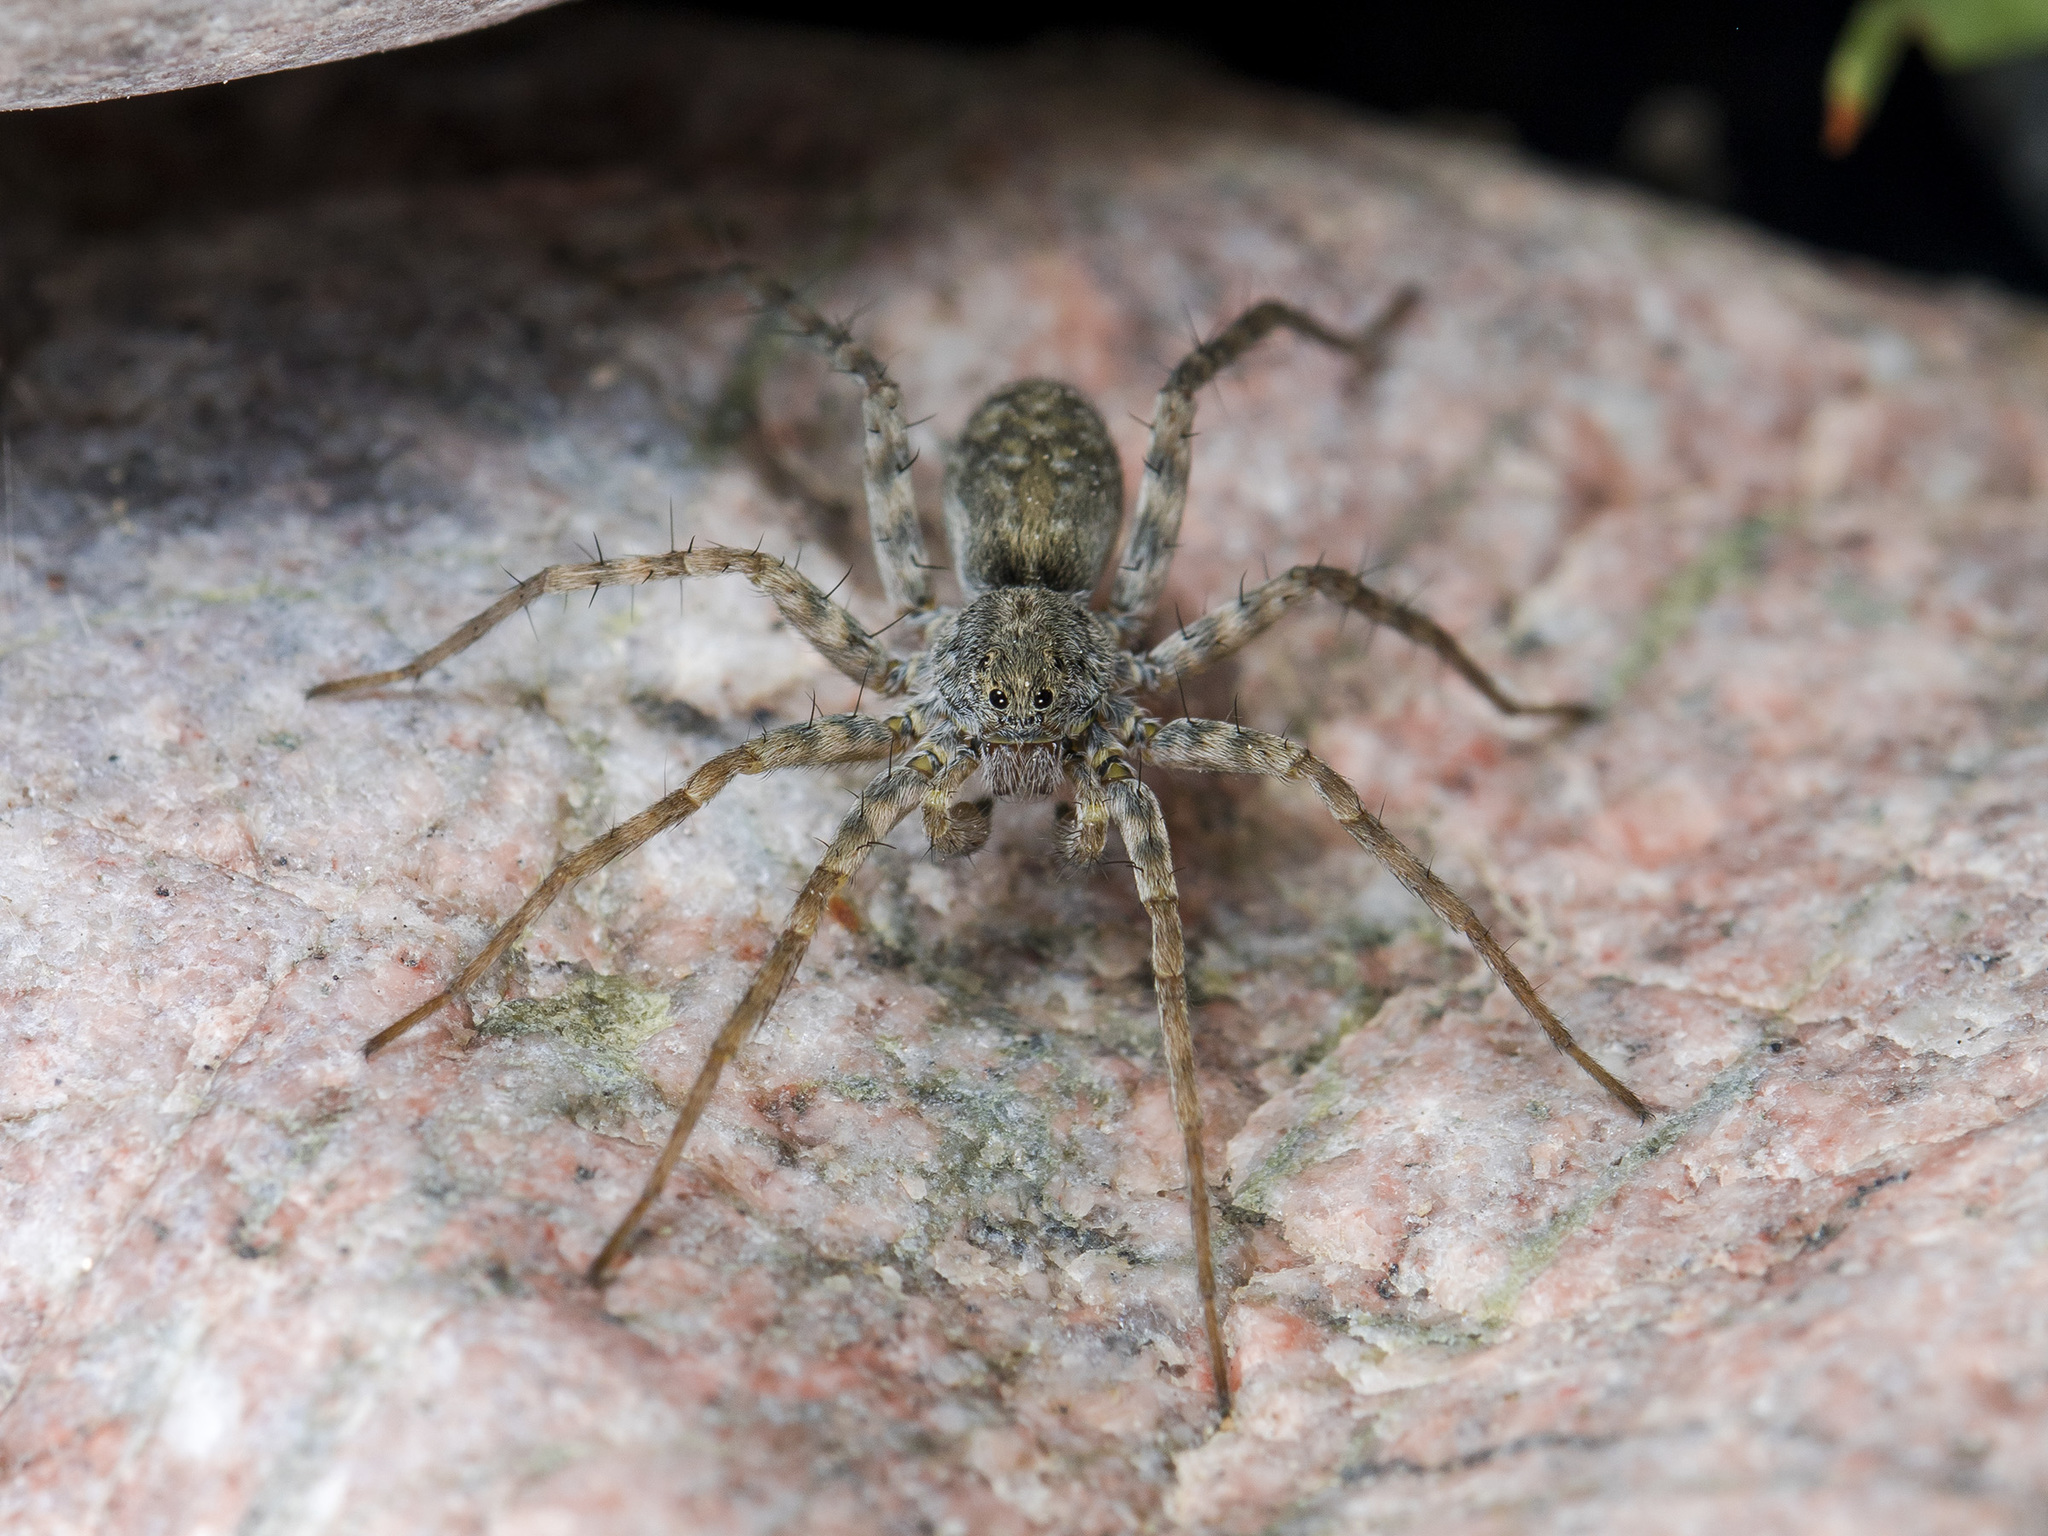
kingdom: Animalia
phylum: Arthropoda
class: Arachnida
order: Araneae
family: Lycosidae
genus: Pardosa
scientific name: Pardosa falcata
